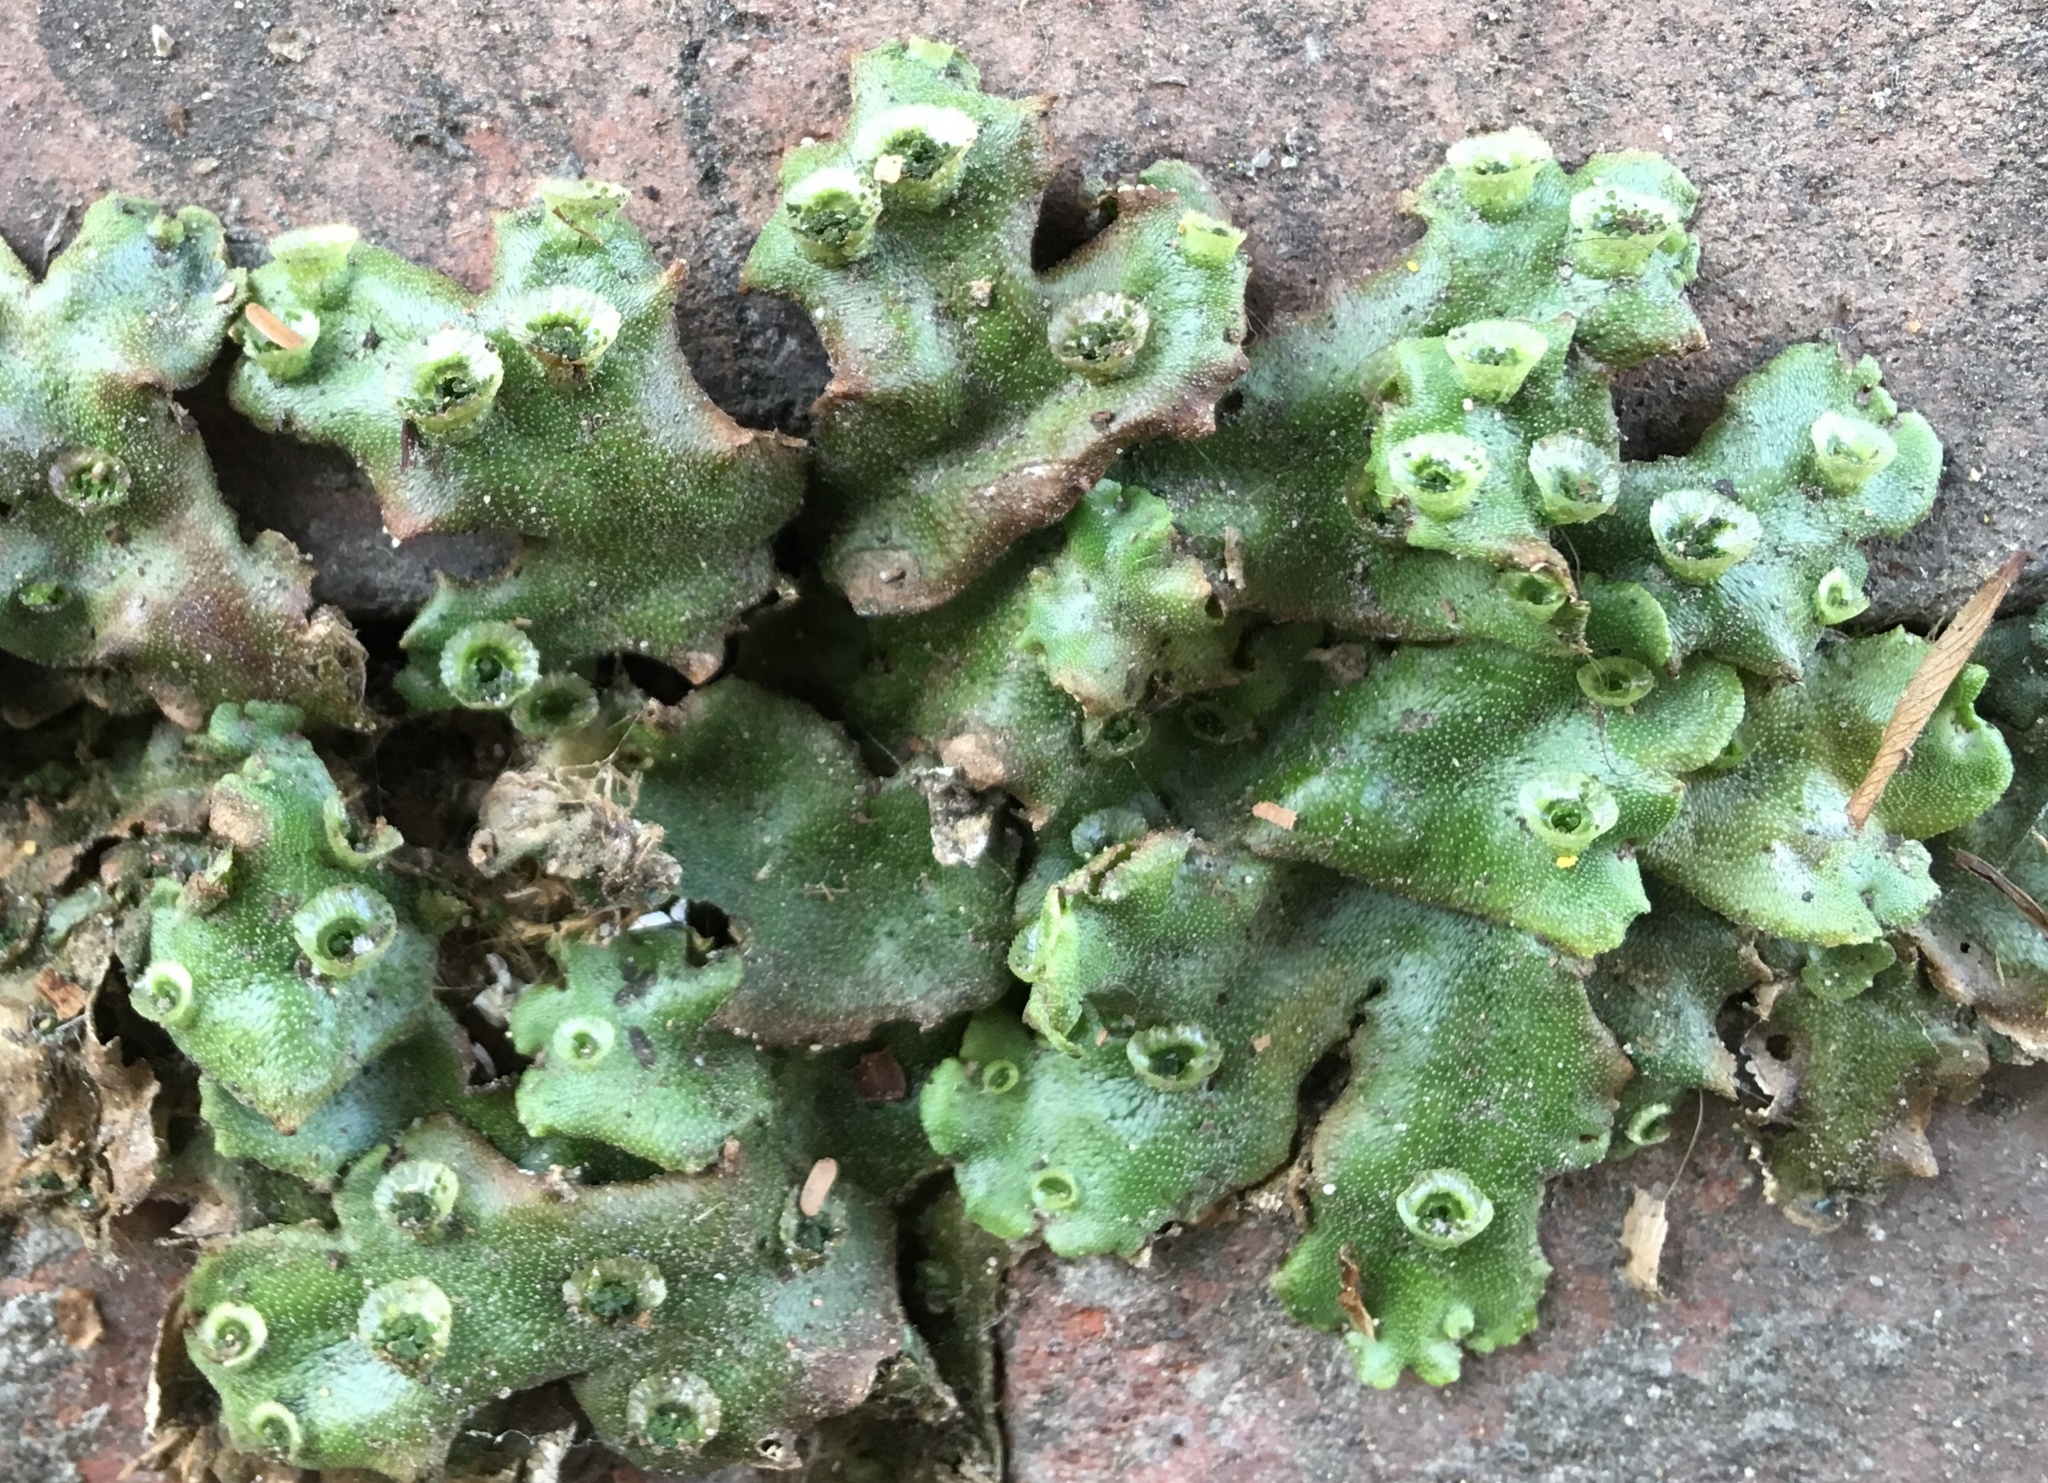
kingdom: Plantae
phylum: Marchantiophyta
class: Marchantiopsida
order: Marchantiales
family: Marchantiaceae
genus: Marchantia
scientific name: Marchantia polymorpha
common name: Common liverwort
